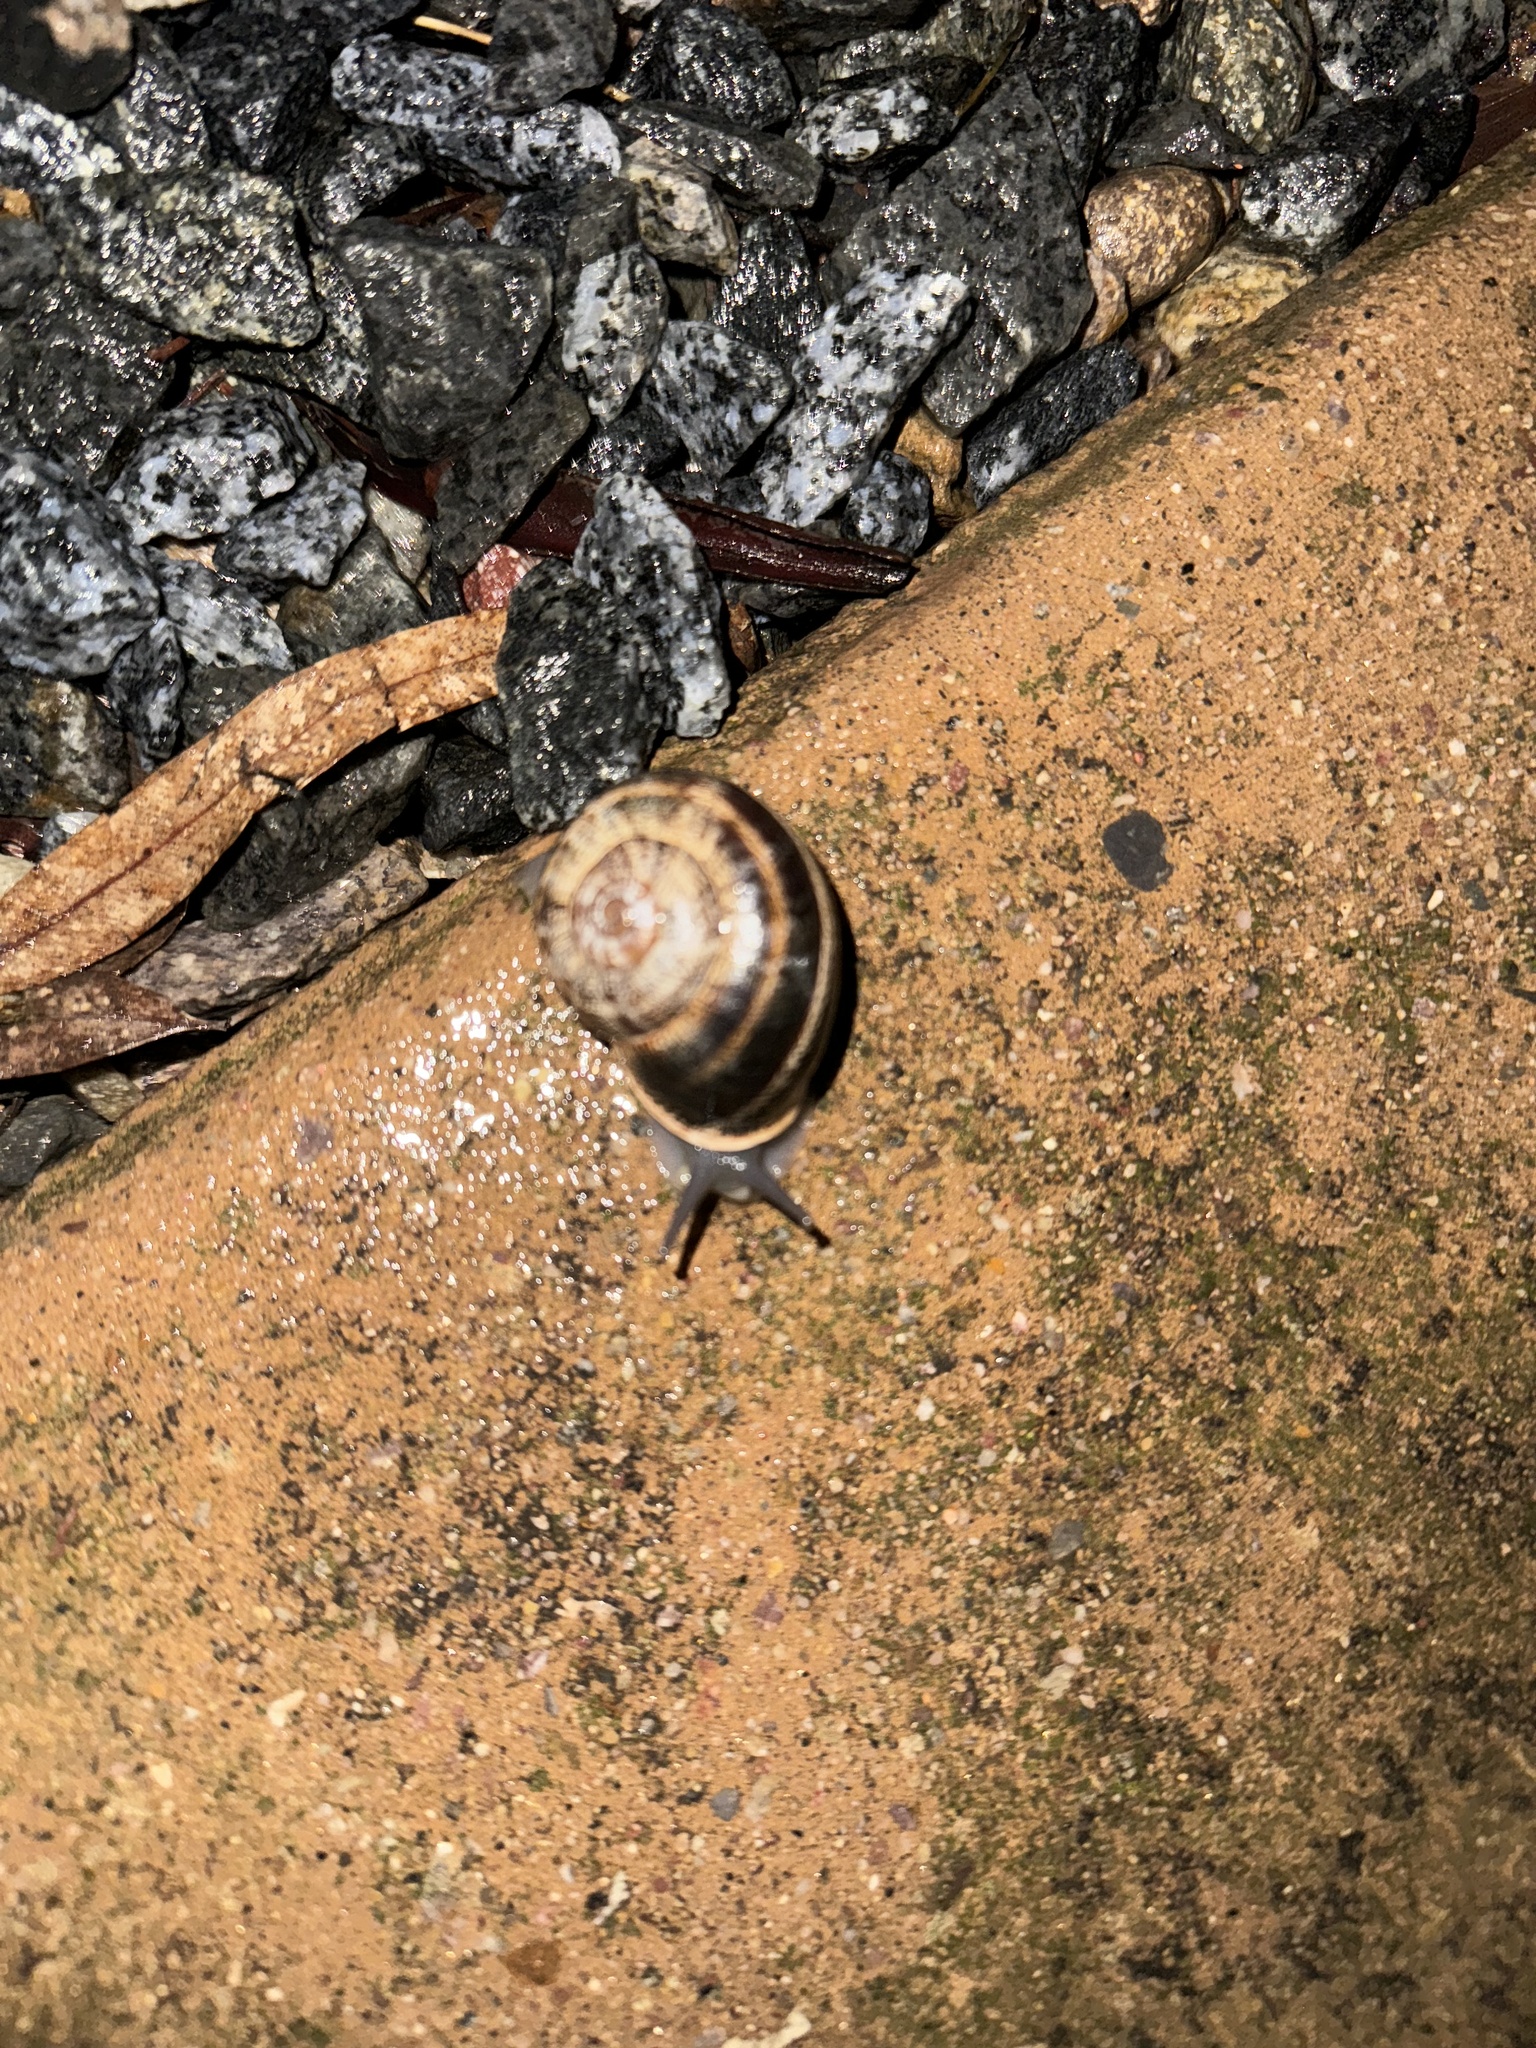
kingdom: Animalia
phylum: Mollusca
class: Gastropoda
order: Stylommatophora
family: Helicidae
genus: Otala
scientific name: Otala lactea
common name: Milk snail
